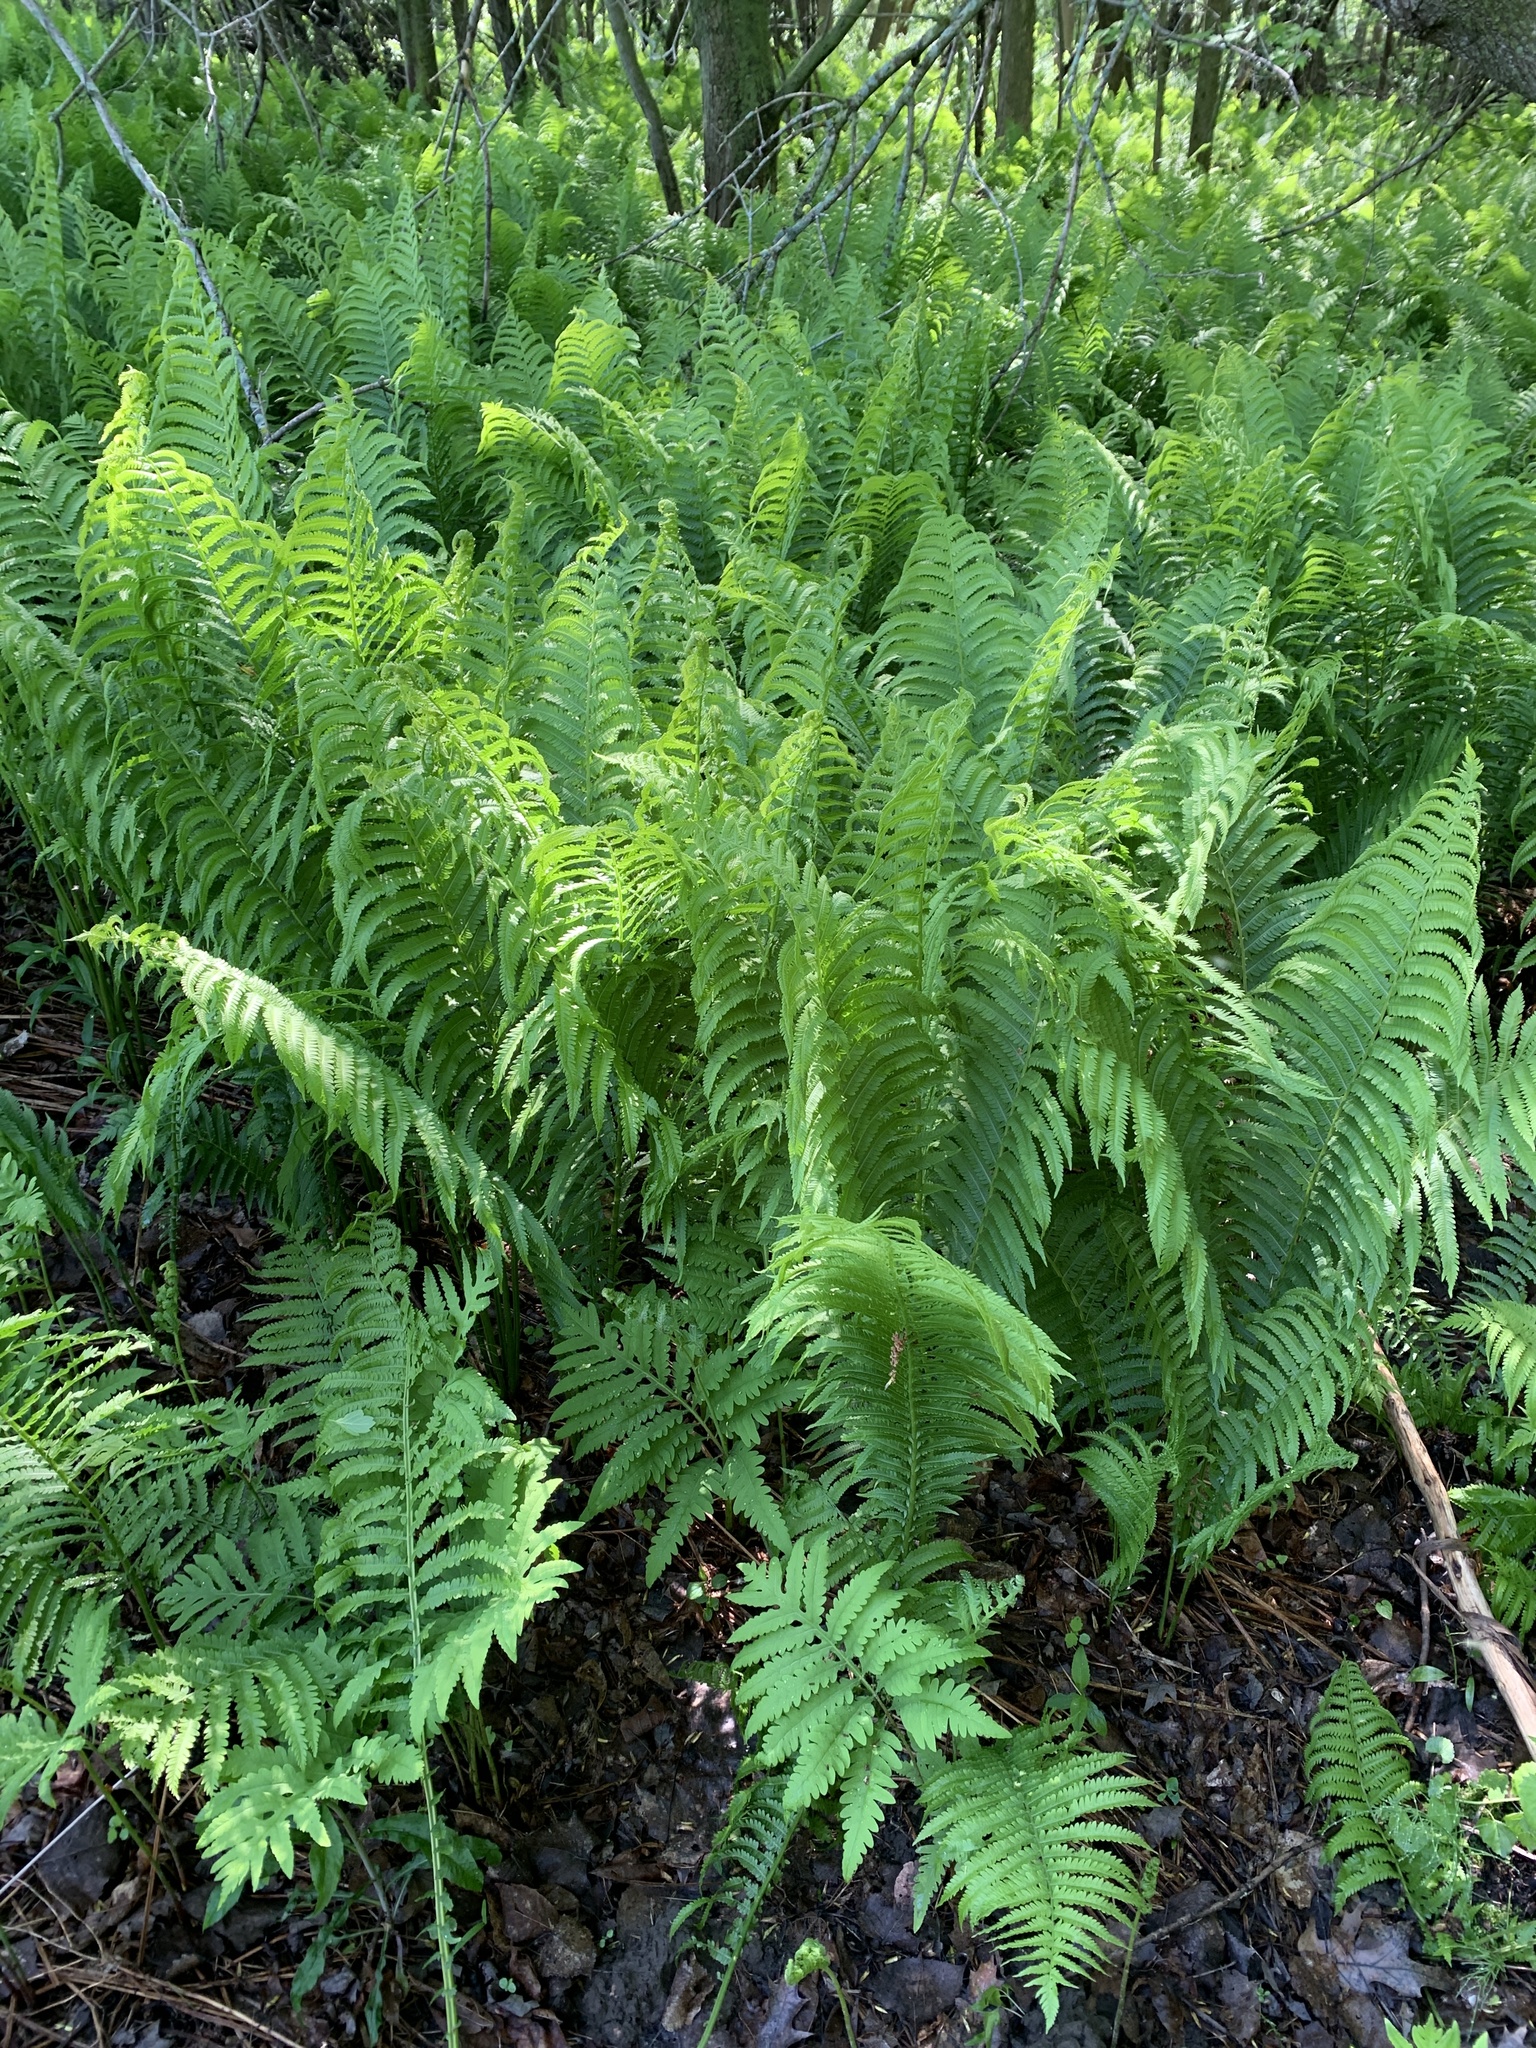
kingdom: Plantae
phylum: Tracheophyta
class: Polypodiopsida
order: Polypodiales
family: Onocleaceae
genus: Matteuccia
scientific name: Matteuccia struthiopteris
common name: Ostrich fern
